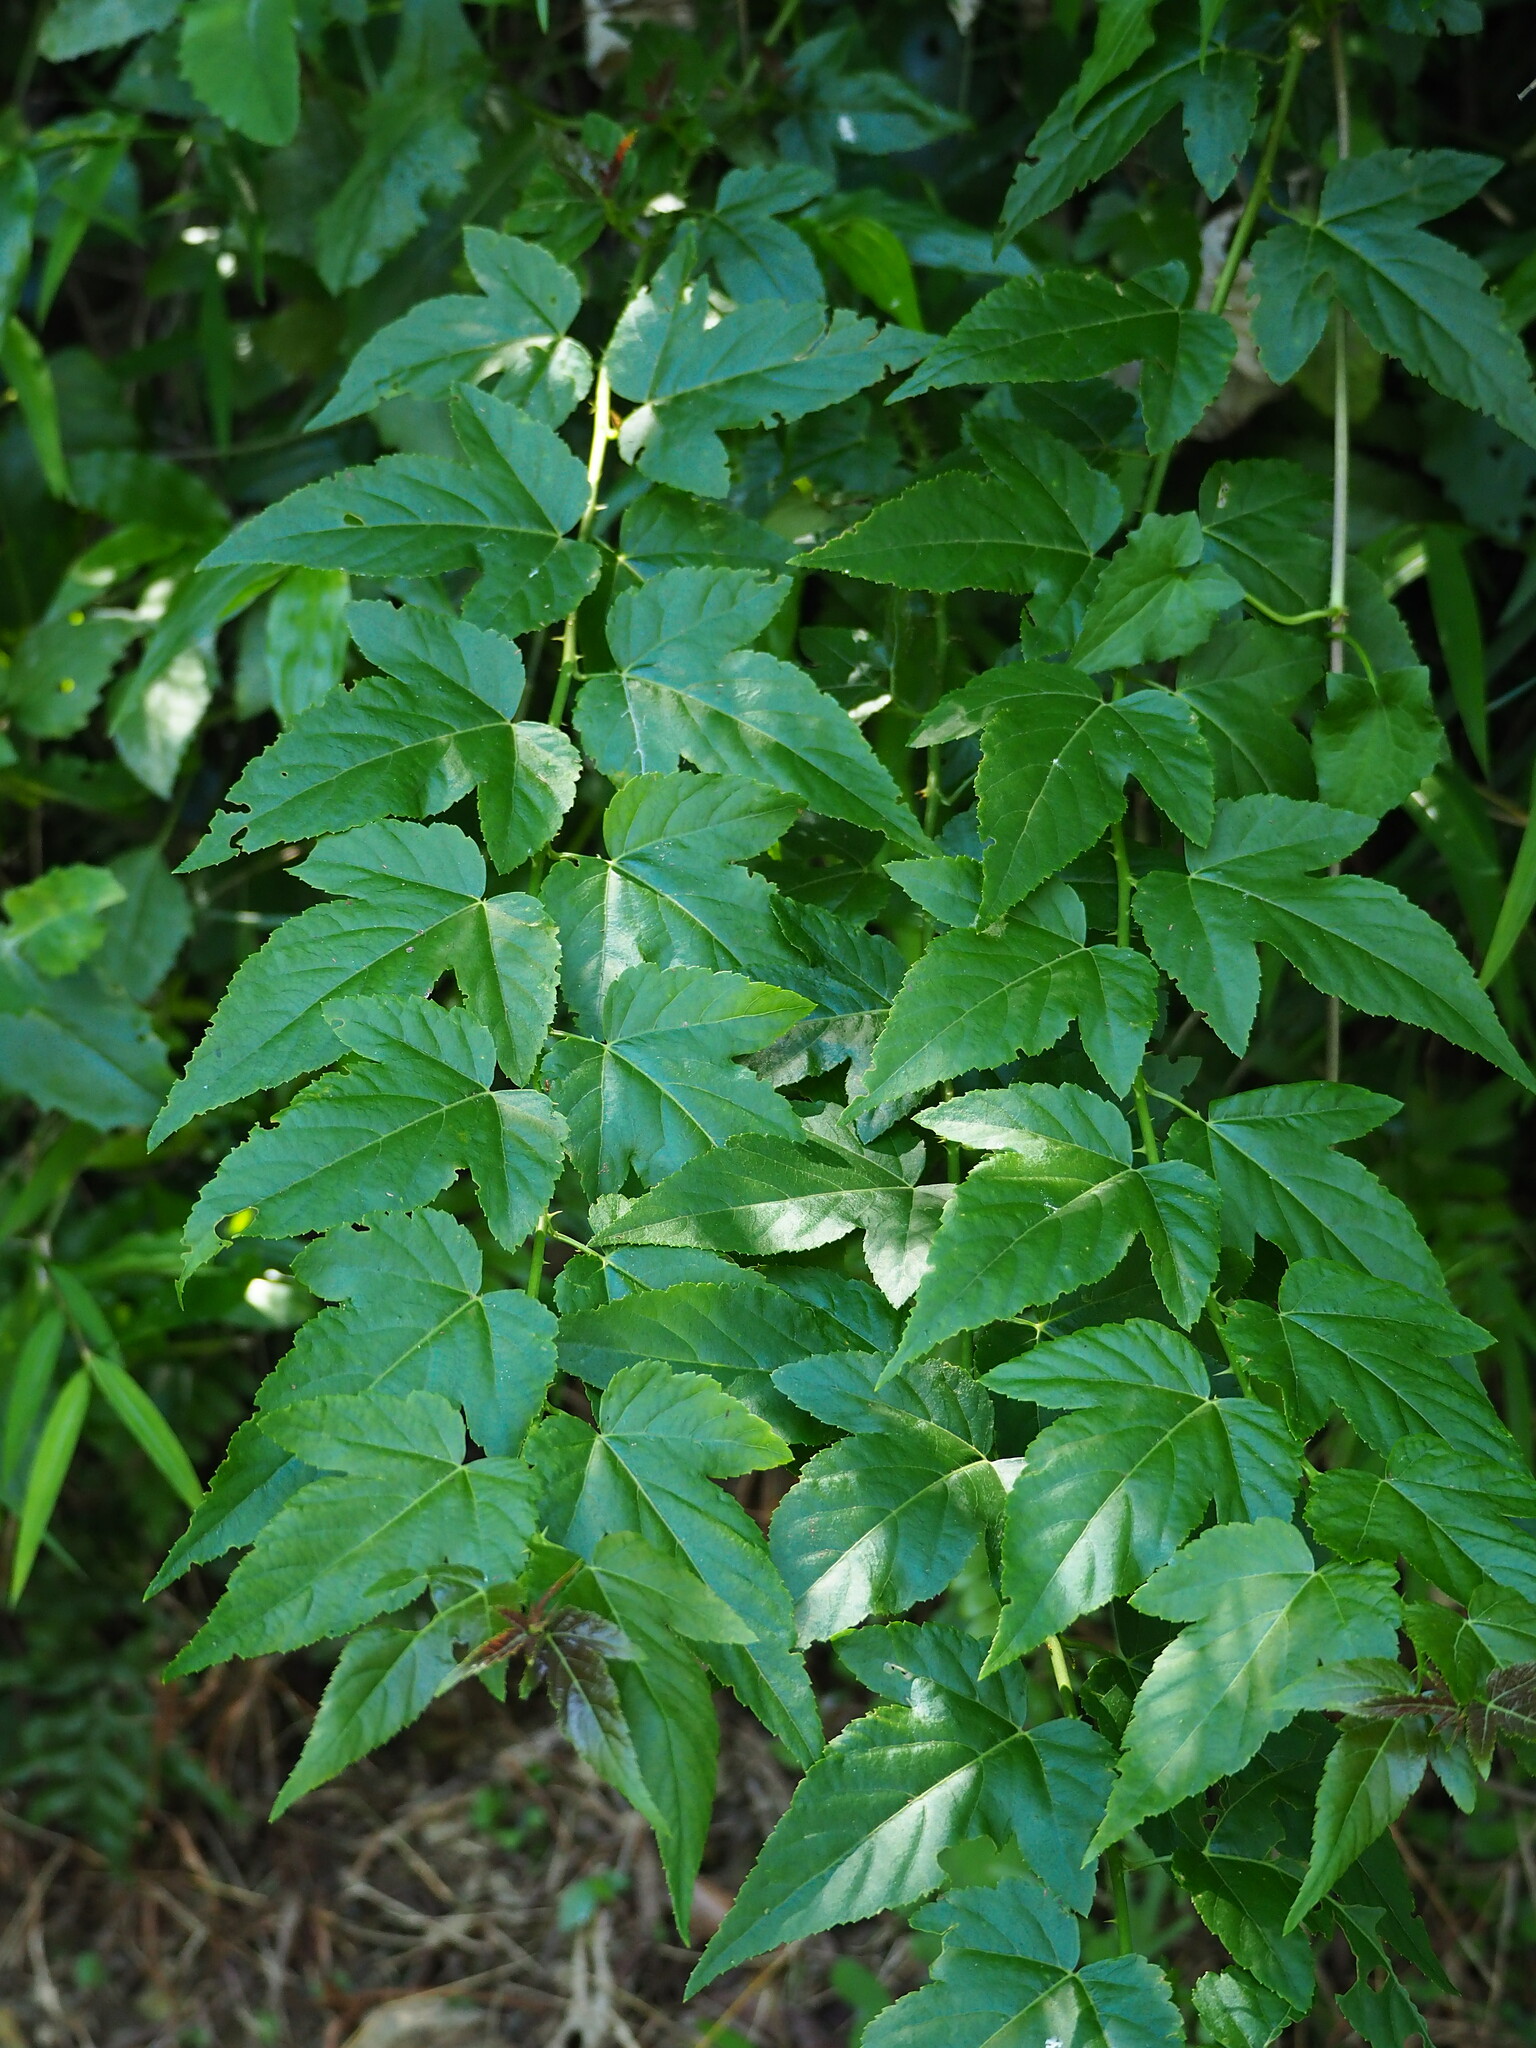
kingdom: Plantae
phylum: Tracheophyta
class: Magnoliopsida
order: Rosales
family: Rosaceae
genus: Rubus
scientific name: Rubus corchorifolius
